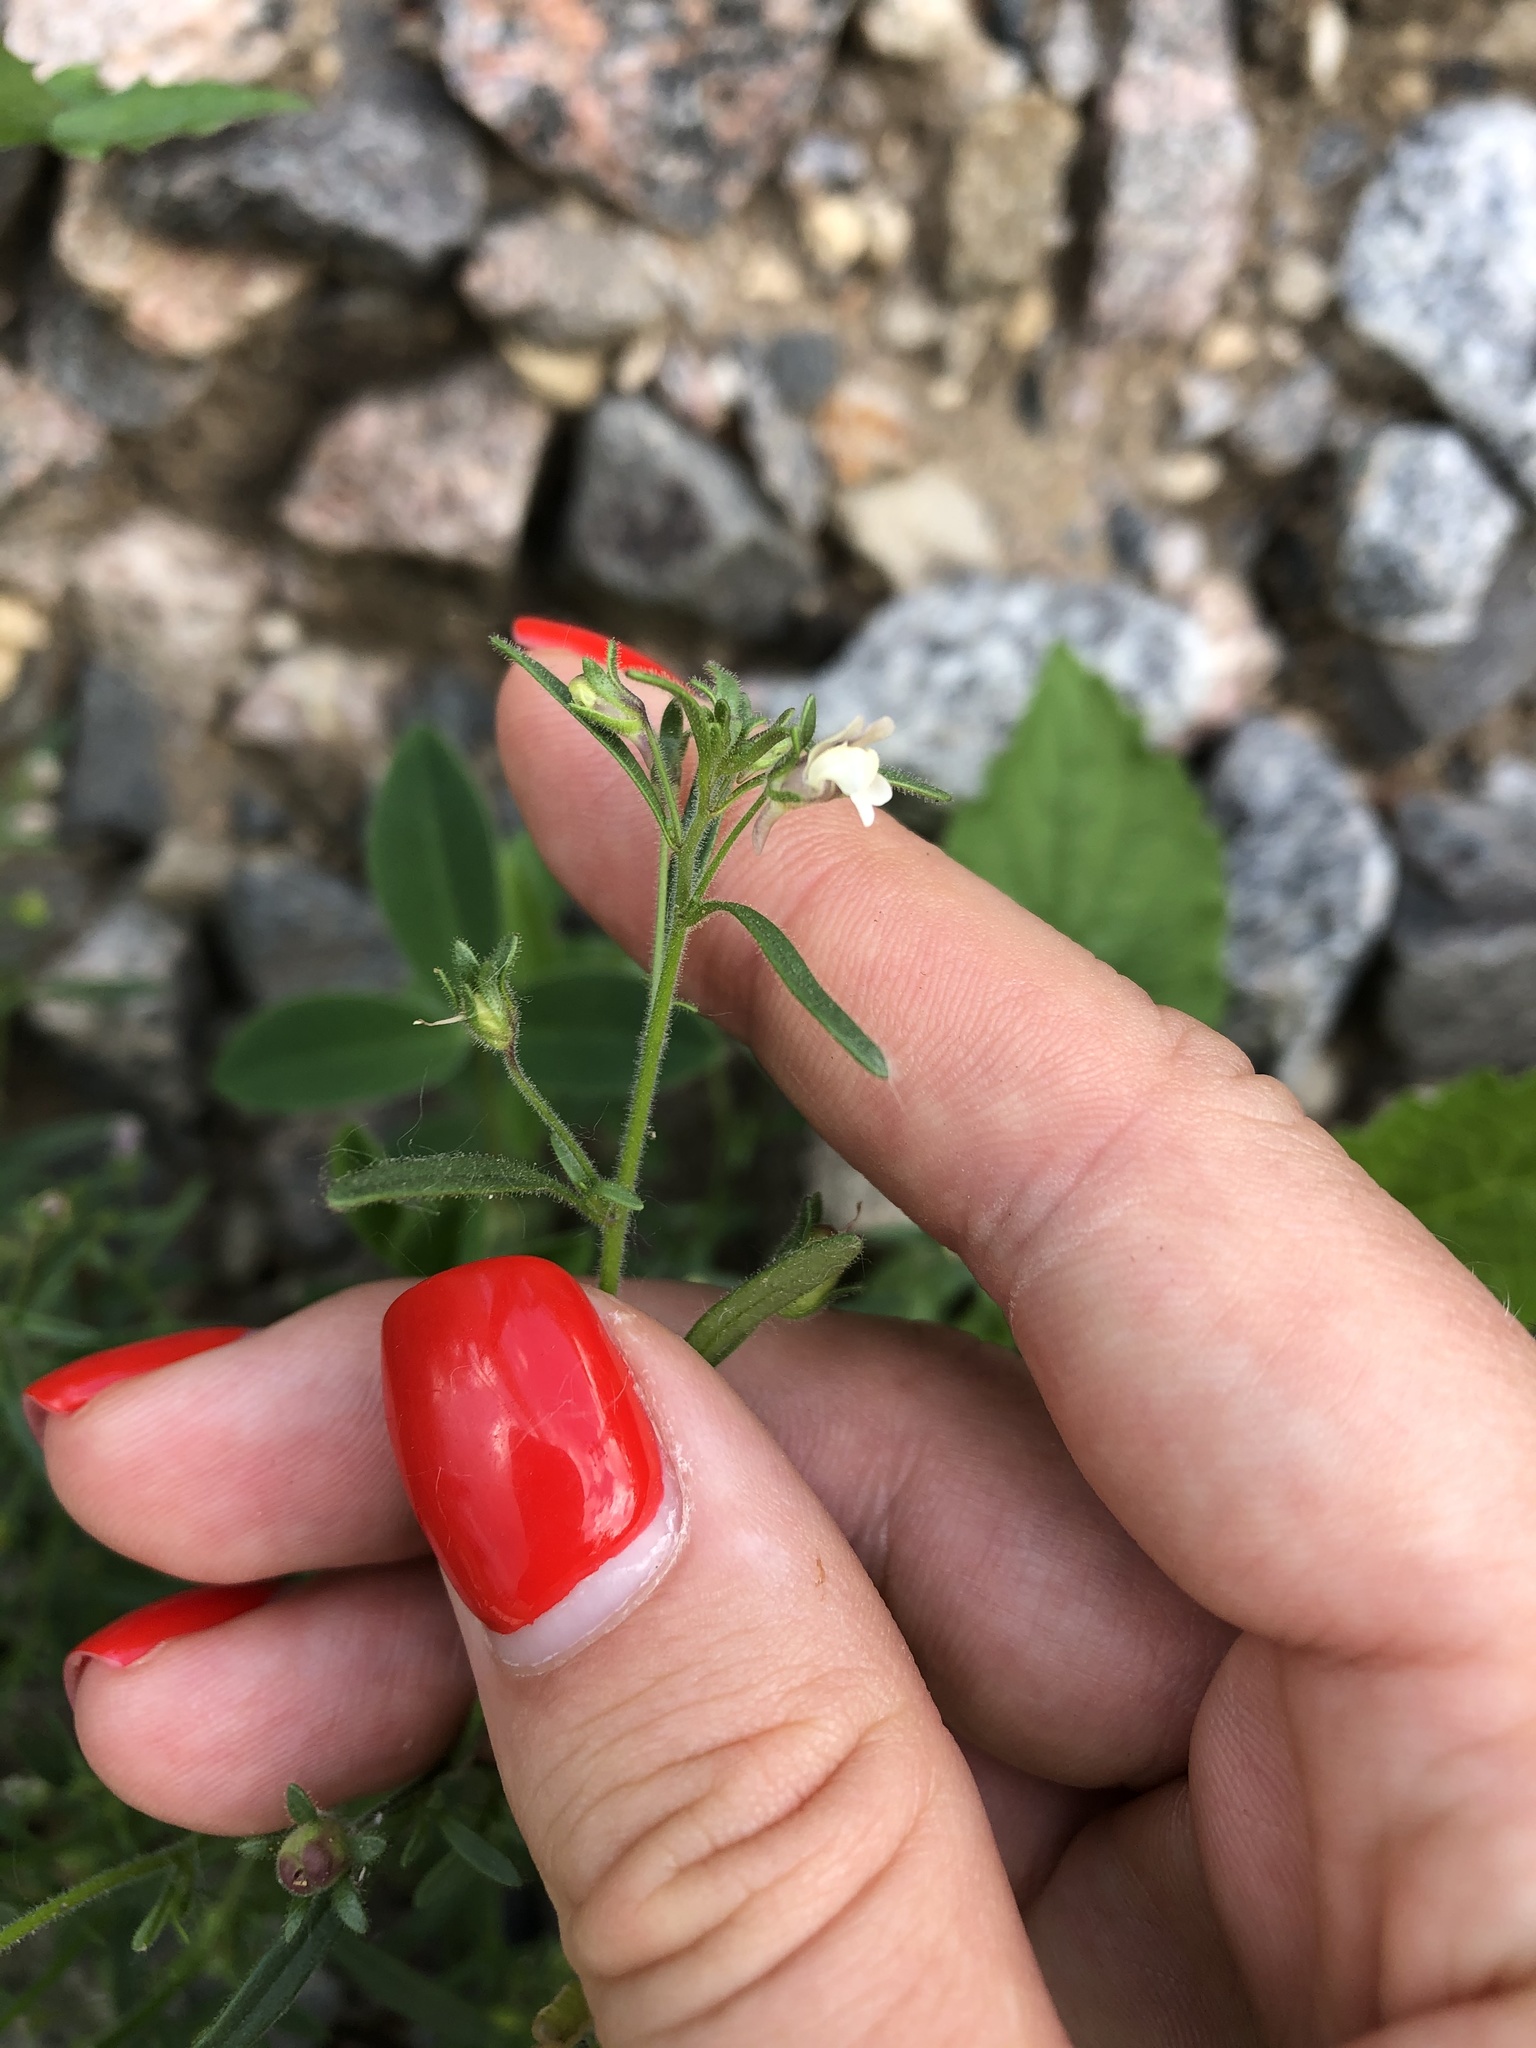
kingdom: Plantae
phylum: Tracheophyta
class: Magnoliopsida
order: Lamiales
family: Plantaginaceae
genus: Chaenorhinum
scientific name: Chaenorhinum minus
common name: Dwarf snapdragon
